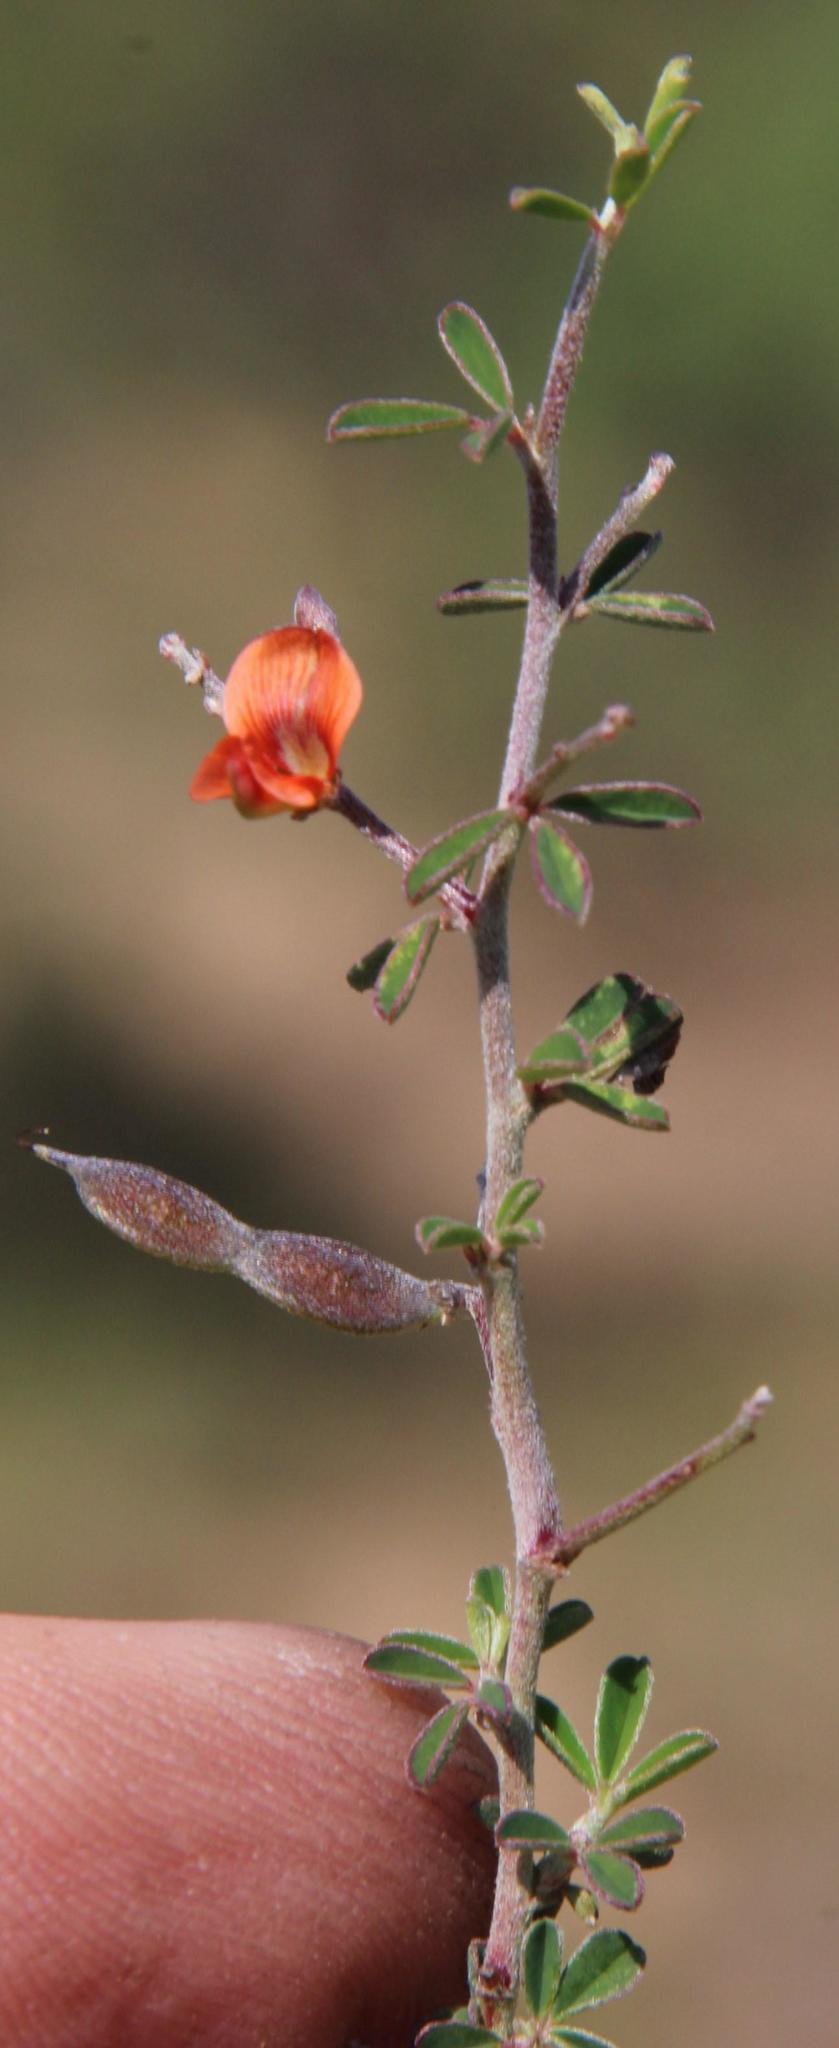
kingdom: Plantae
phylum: Tracheophyta
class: Magnoliopsida
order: Fabales
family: Fabaceae
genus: Indigofera
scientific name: Indigofera sessilifolia
